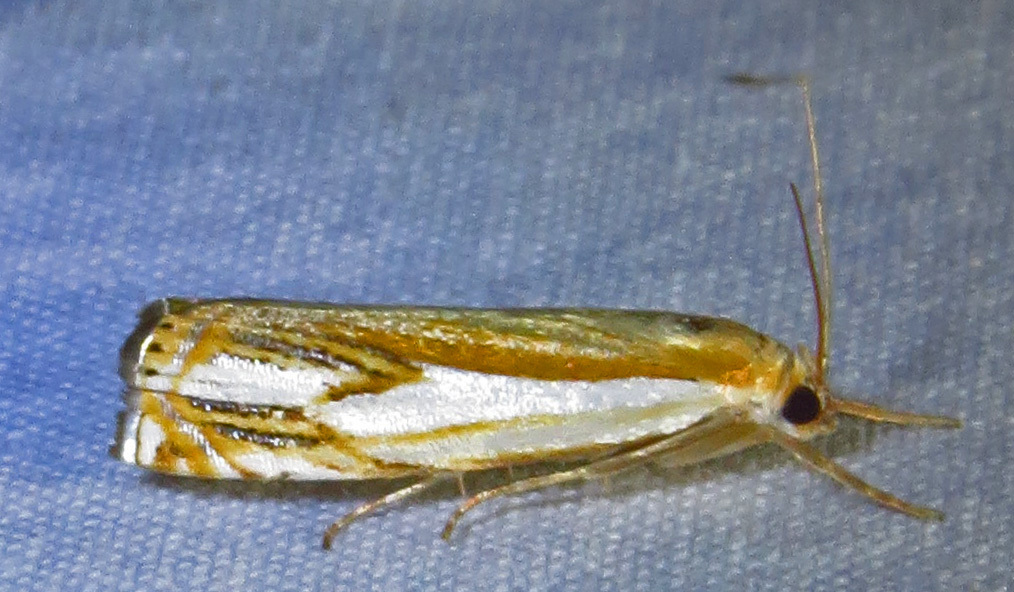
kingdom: Animalia
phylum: Arthropoda
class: Insecta
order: Lepidoptera
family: Crambidae
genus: Crambus
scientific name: Crambus agitatellus
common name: Double-banded grass-veneer
